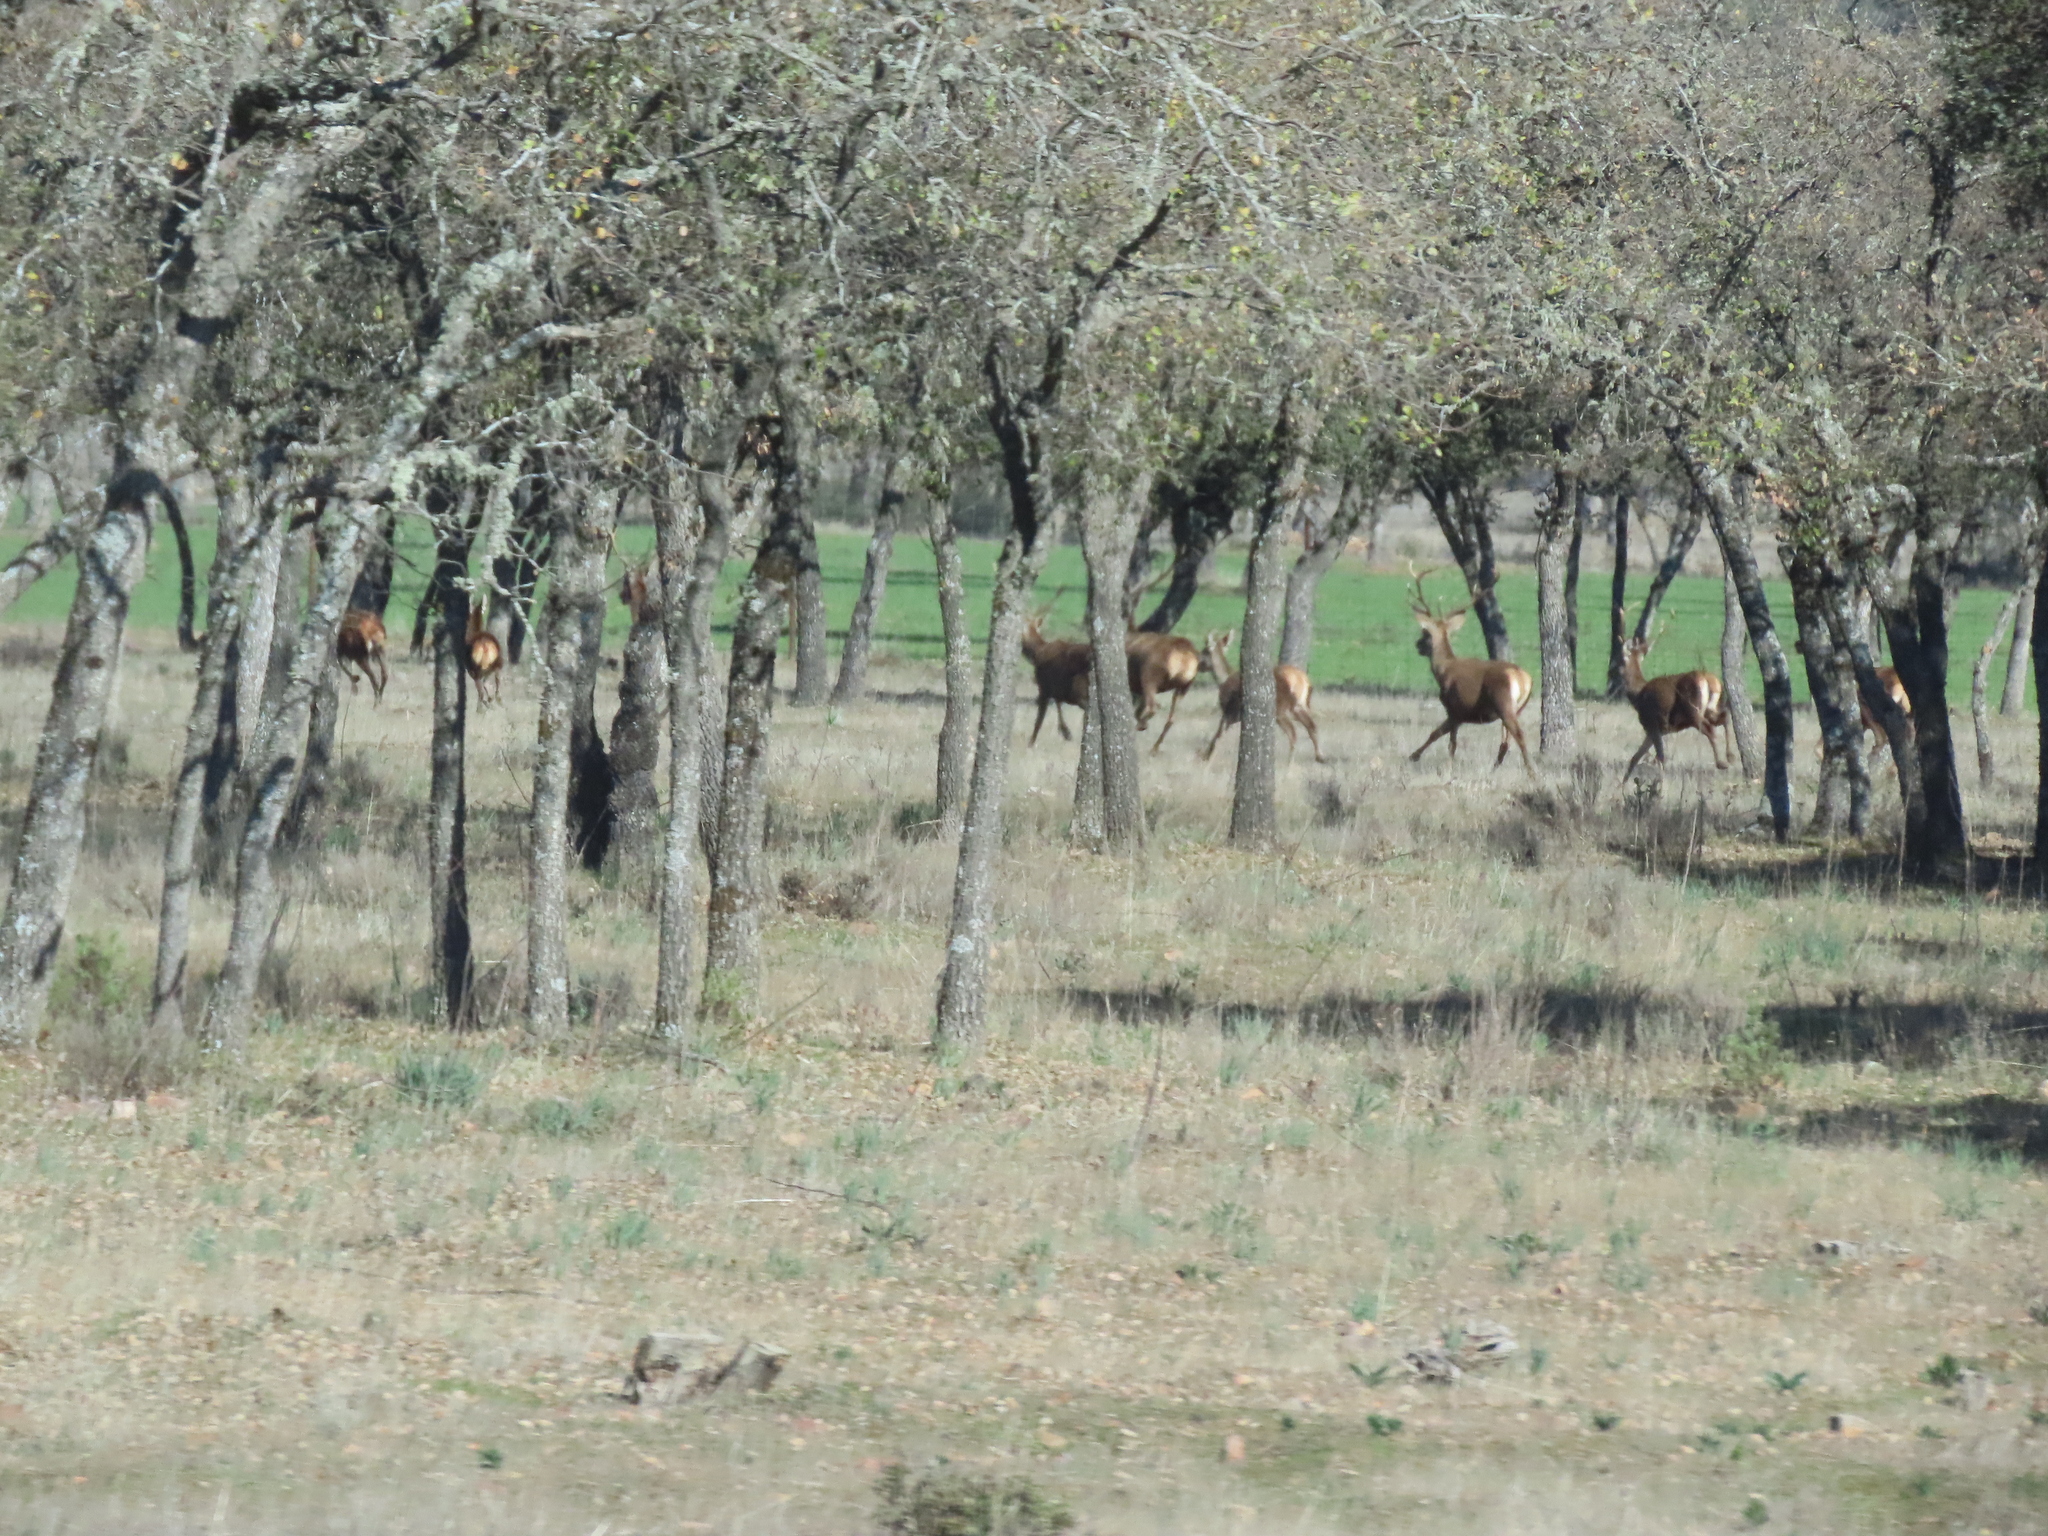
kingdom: Animalia
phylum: Chordata
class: Mammalia
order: Artiodactyla
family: Cervidae
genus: Cervus
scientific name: Cervus elaphus
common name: Red deer
